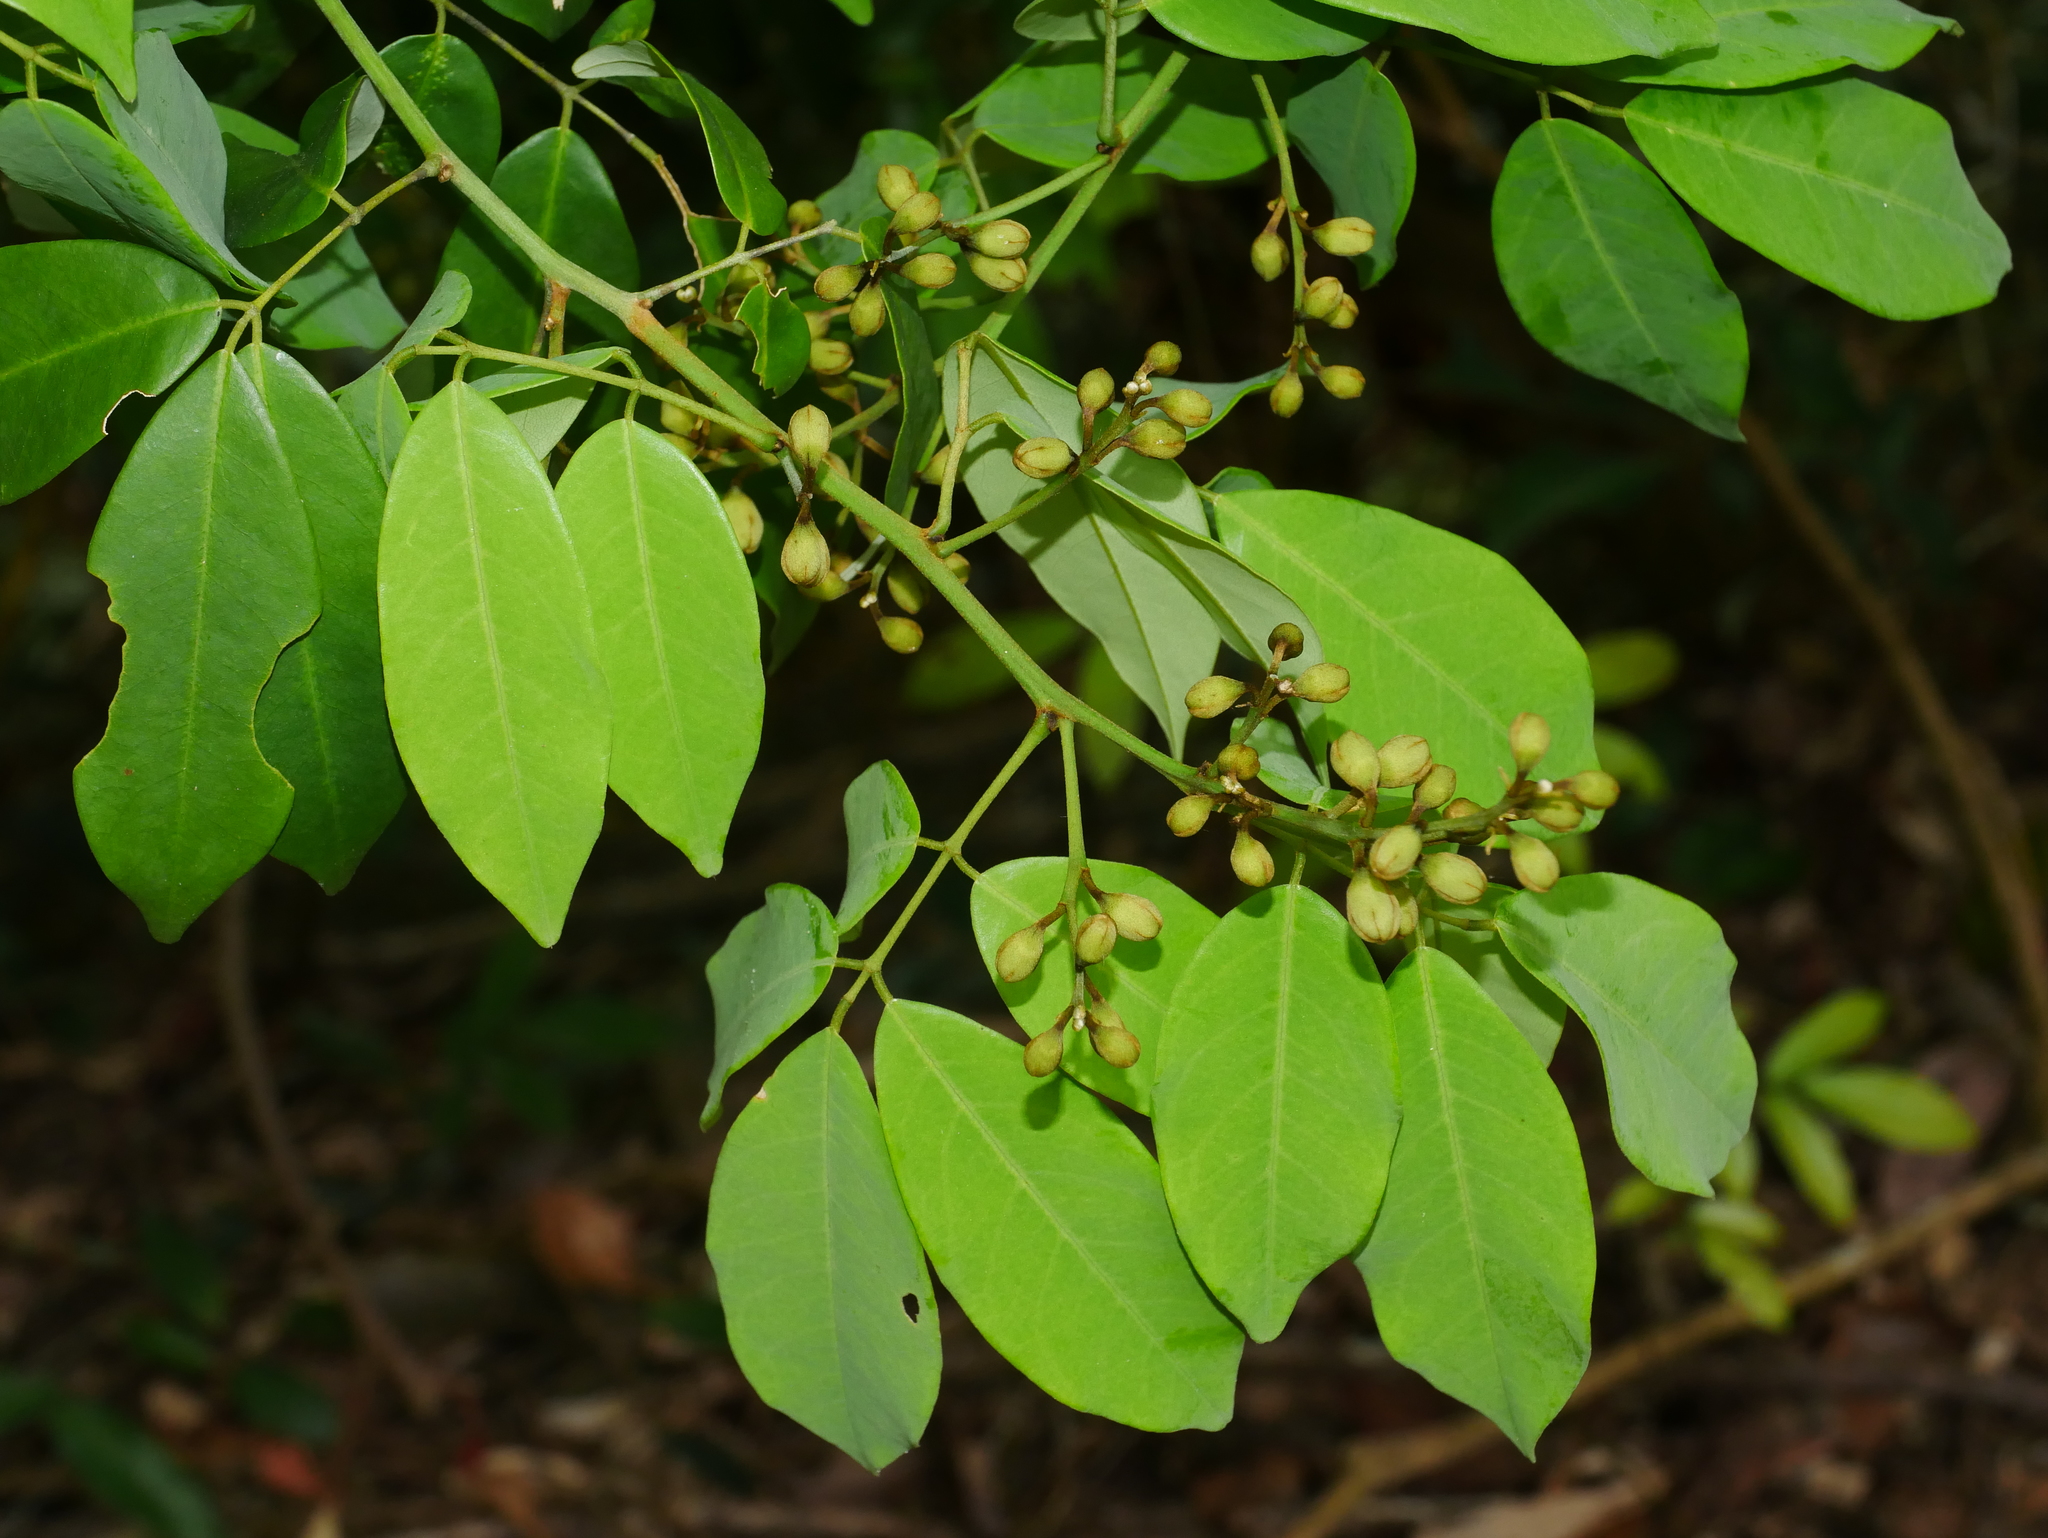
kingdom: Plantae
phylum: Tracheophyta
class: Magnoliopsida
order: Fabales
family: Fabaceae
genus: Ormosia
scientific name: Ormosia formosana
